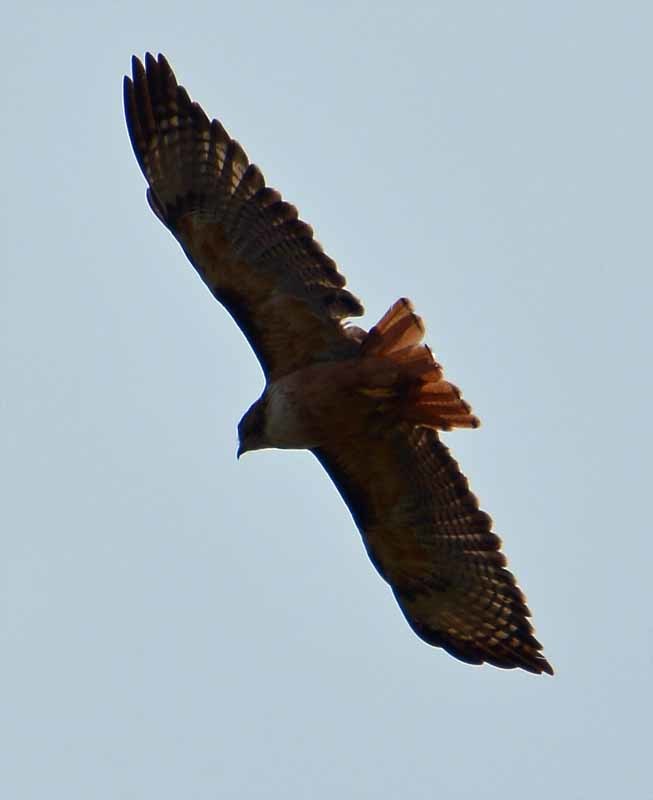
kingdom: Animalia
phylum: Chordata
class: Aves
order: Accipitriformes
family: Accipitridae
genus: Buteo
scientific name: Buteo jamaicensis
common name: Red-tailed hawk
